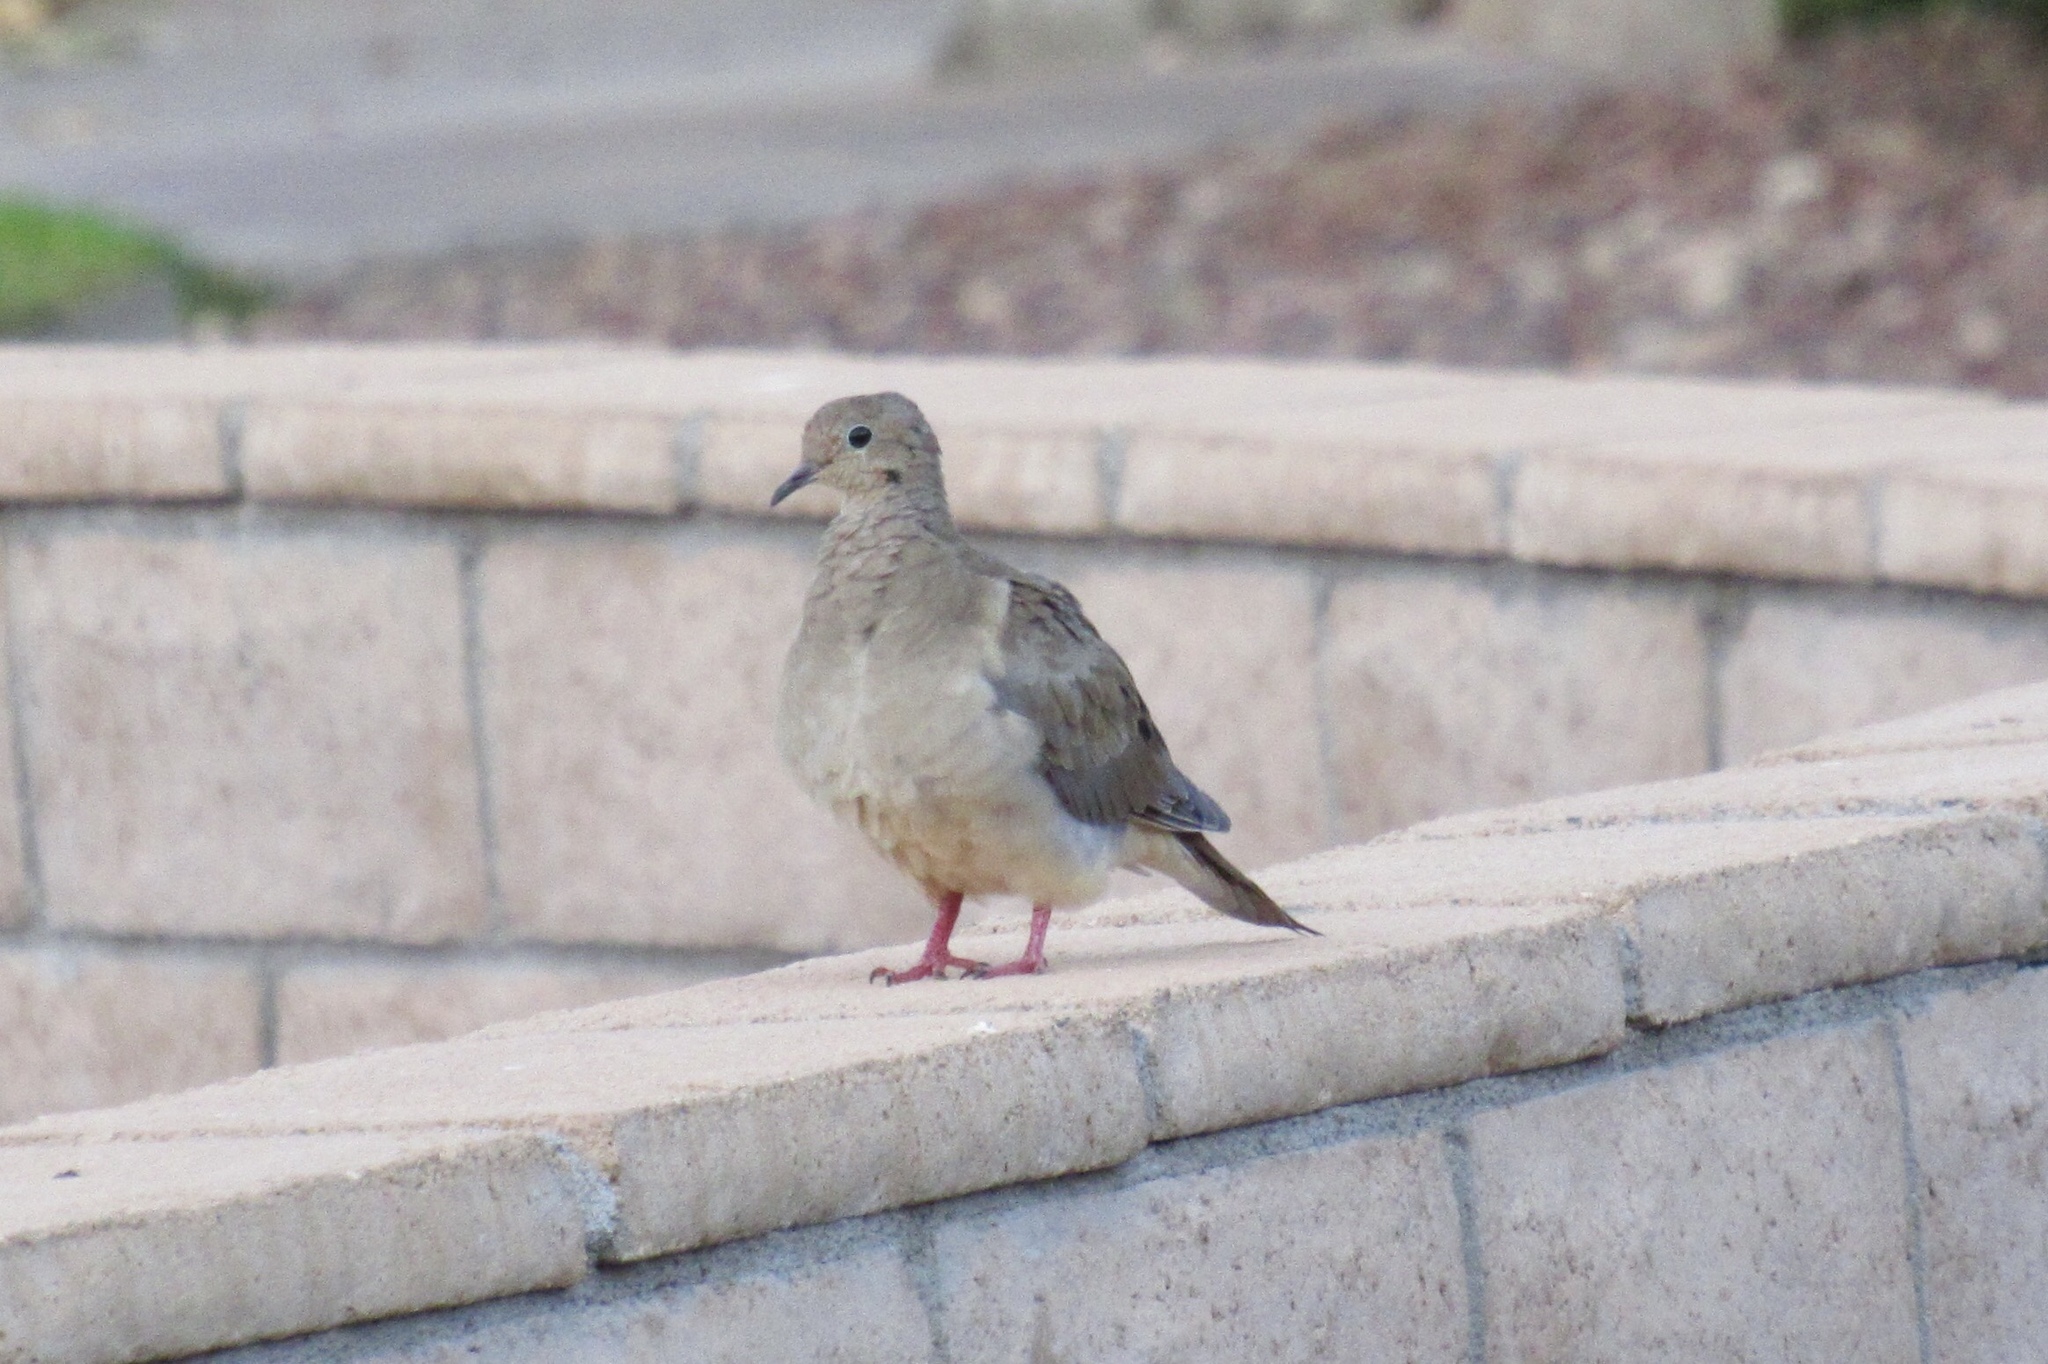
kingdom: Animalia
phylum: Chordata
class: Aves
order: Columbiformes
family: Columbidae
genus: Zenaida
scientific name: Zenaida macroura
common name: Mourning dove
